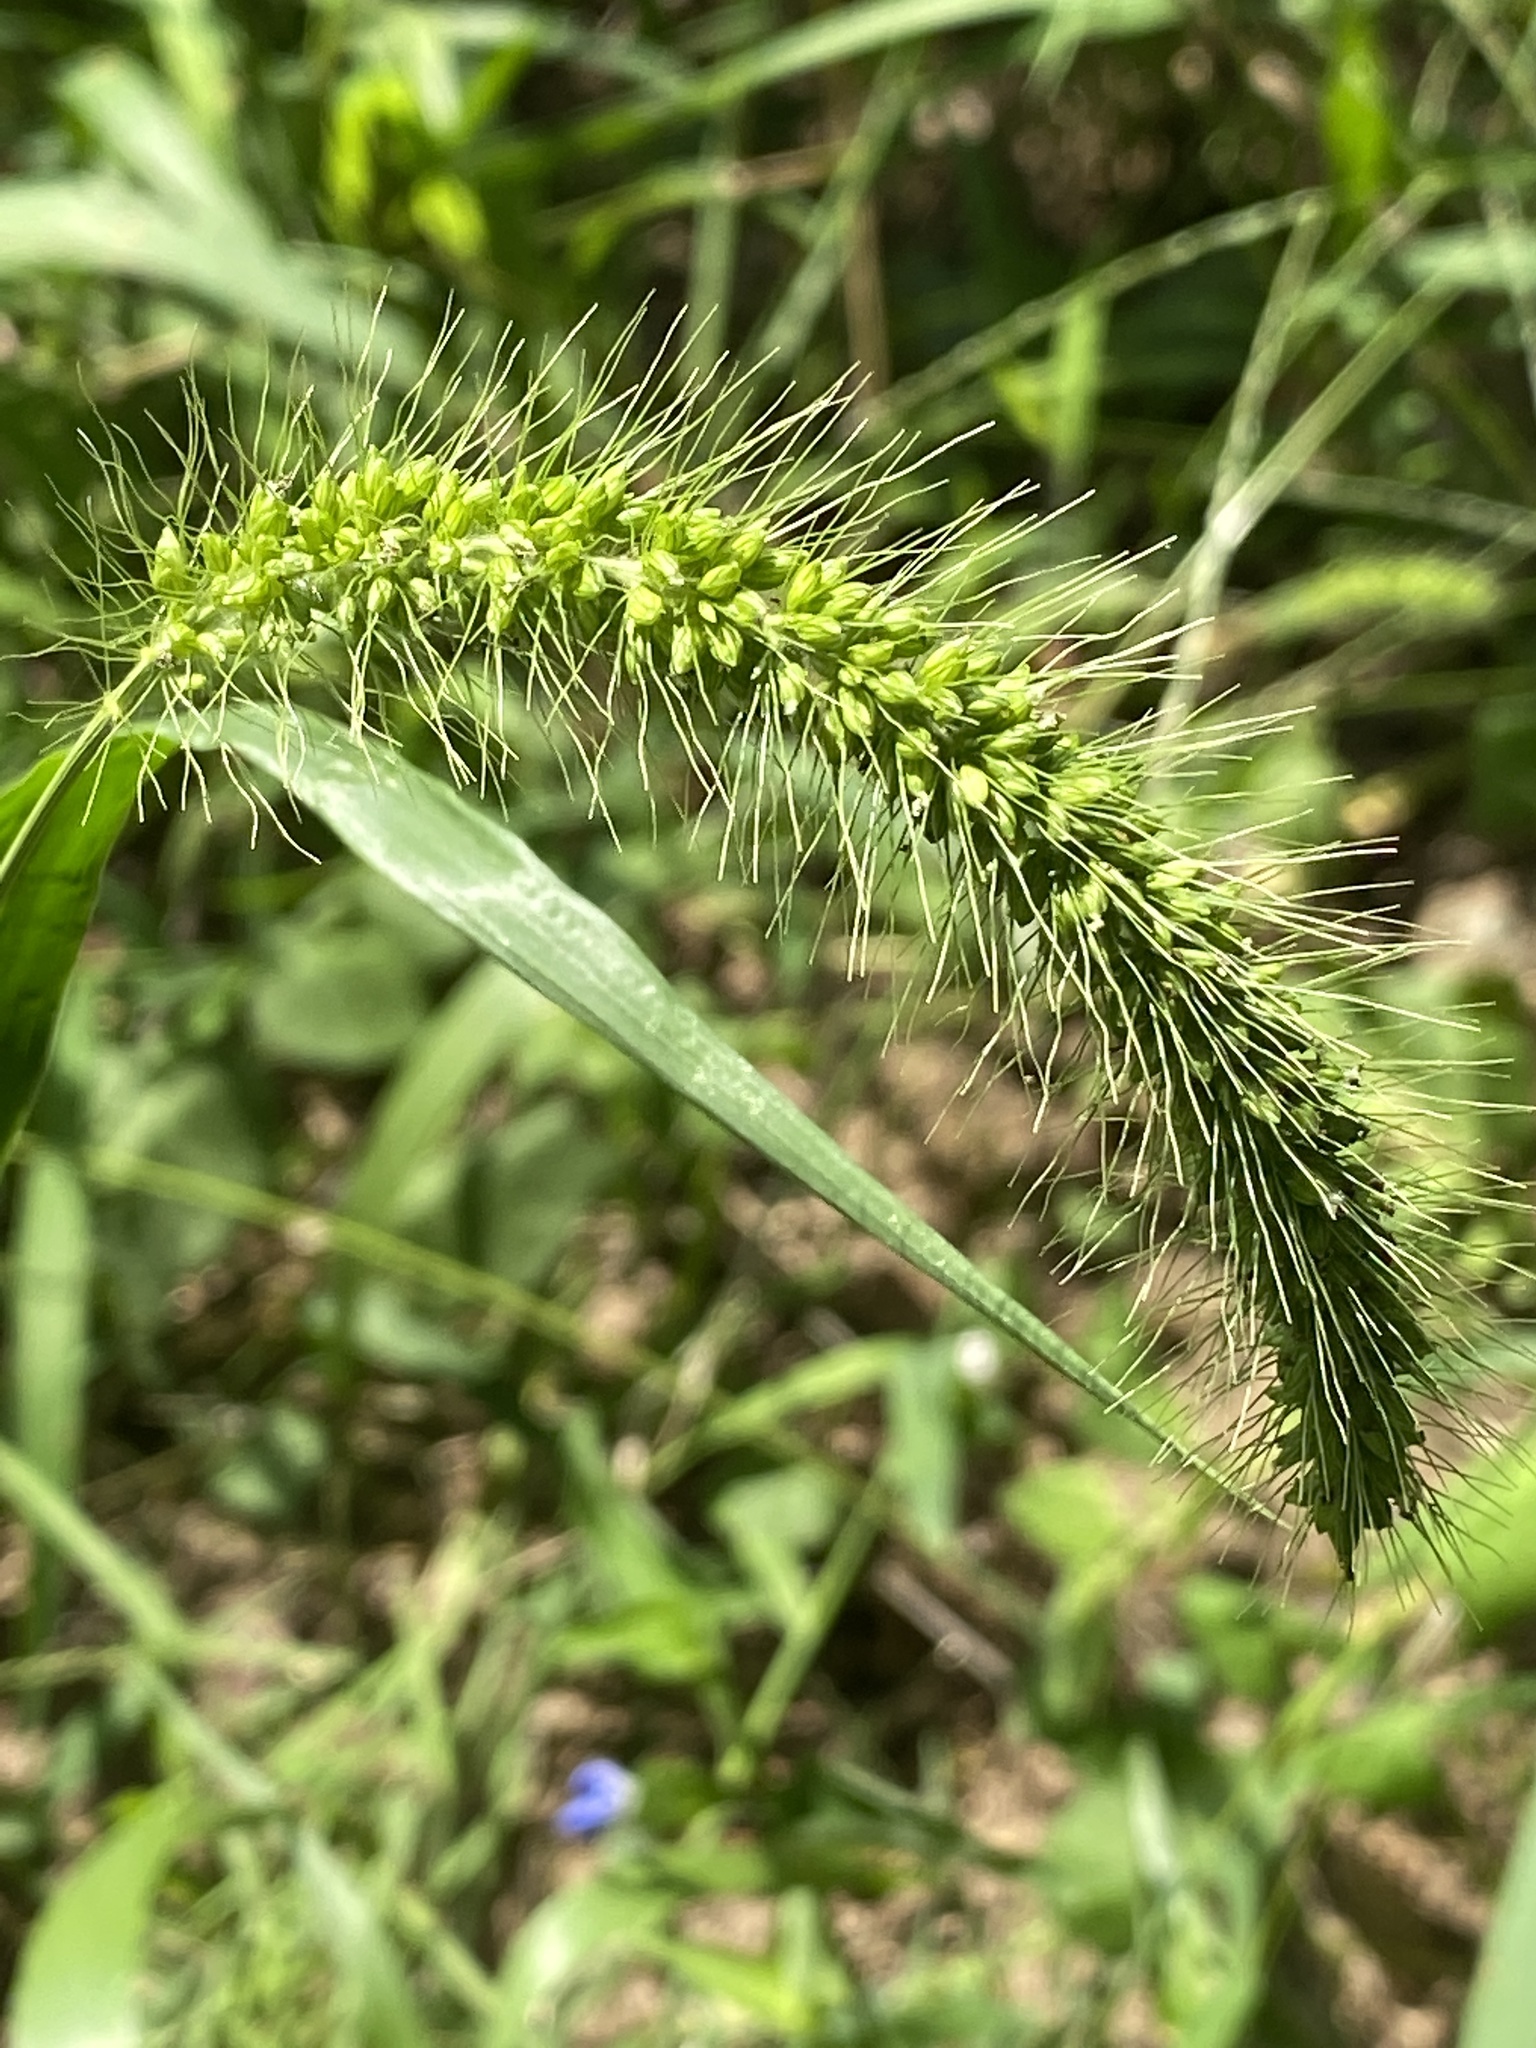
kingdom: Plantae
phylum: Tracheophyta
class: Liliopsida
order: Poales
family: Poaceae
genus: Setaria
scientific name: Setaria faberi
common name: Nodding bristle-grass
